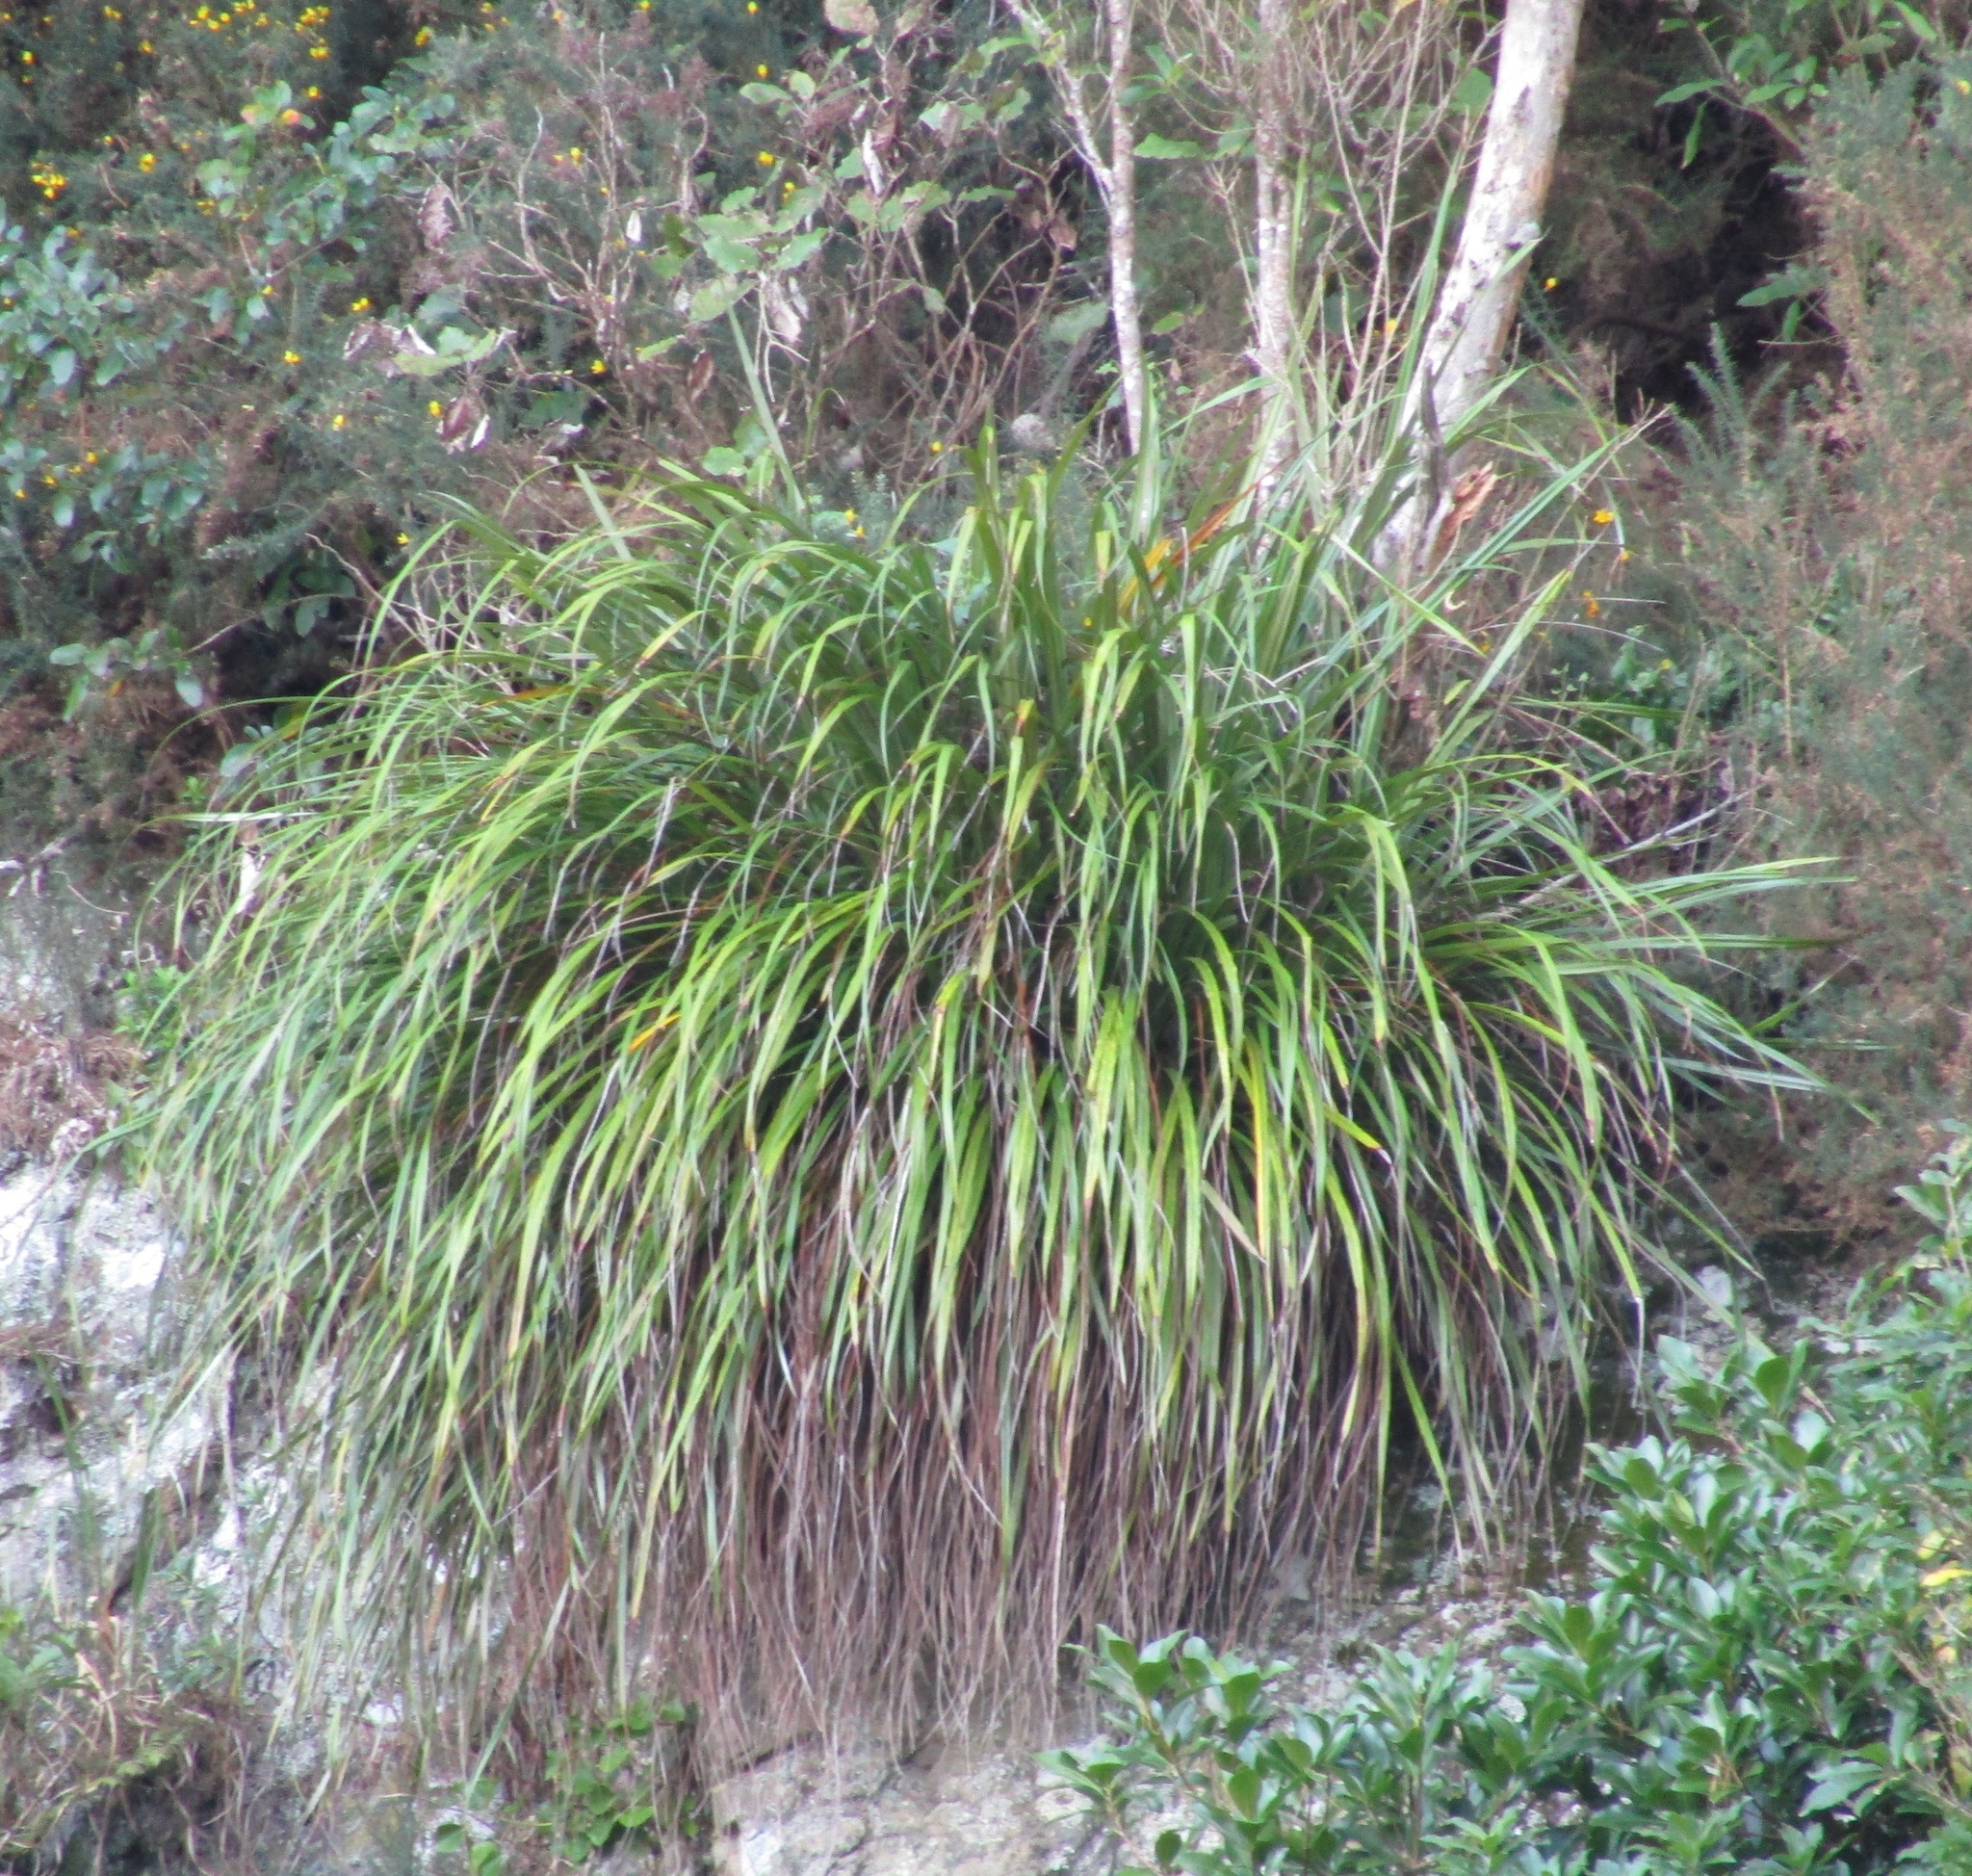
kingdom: Plantae
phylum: Tracheophyta
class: Liliopsida
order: Asparagales
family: Asteliaceae
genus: Astelia
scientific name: Astelia solandri
